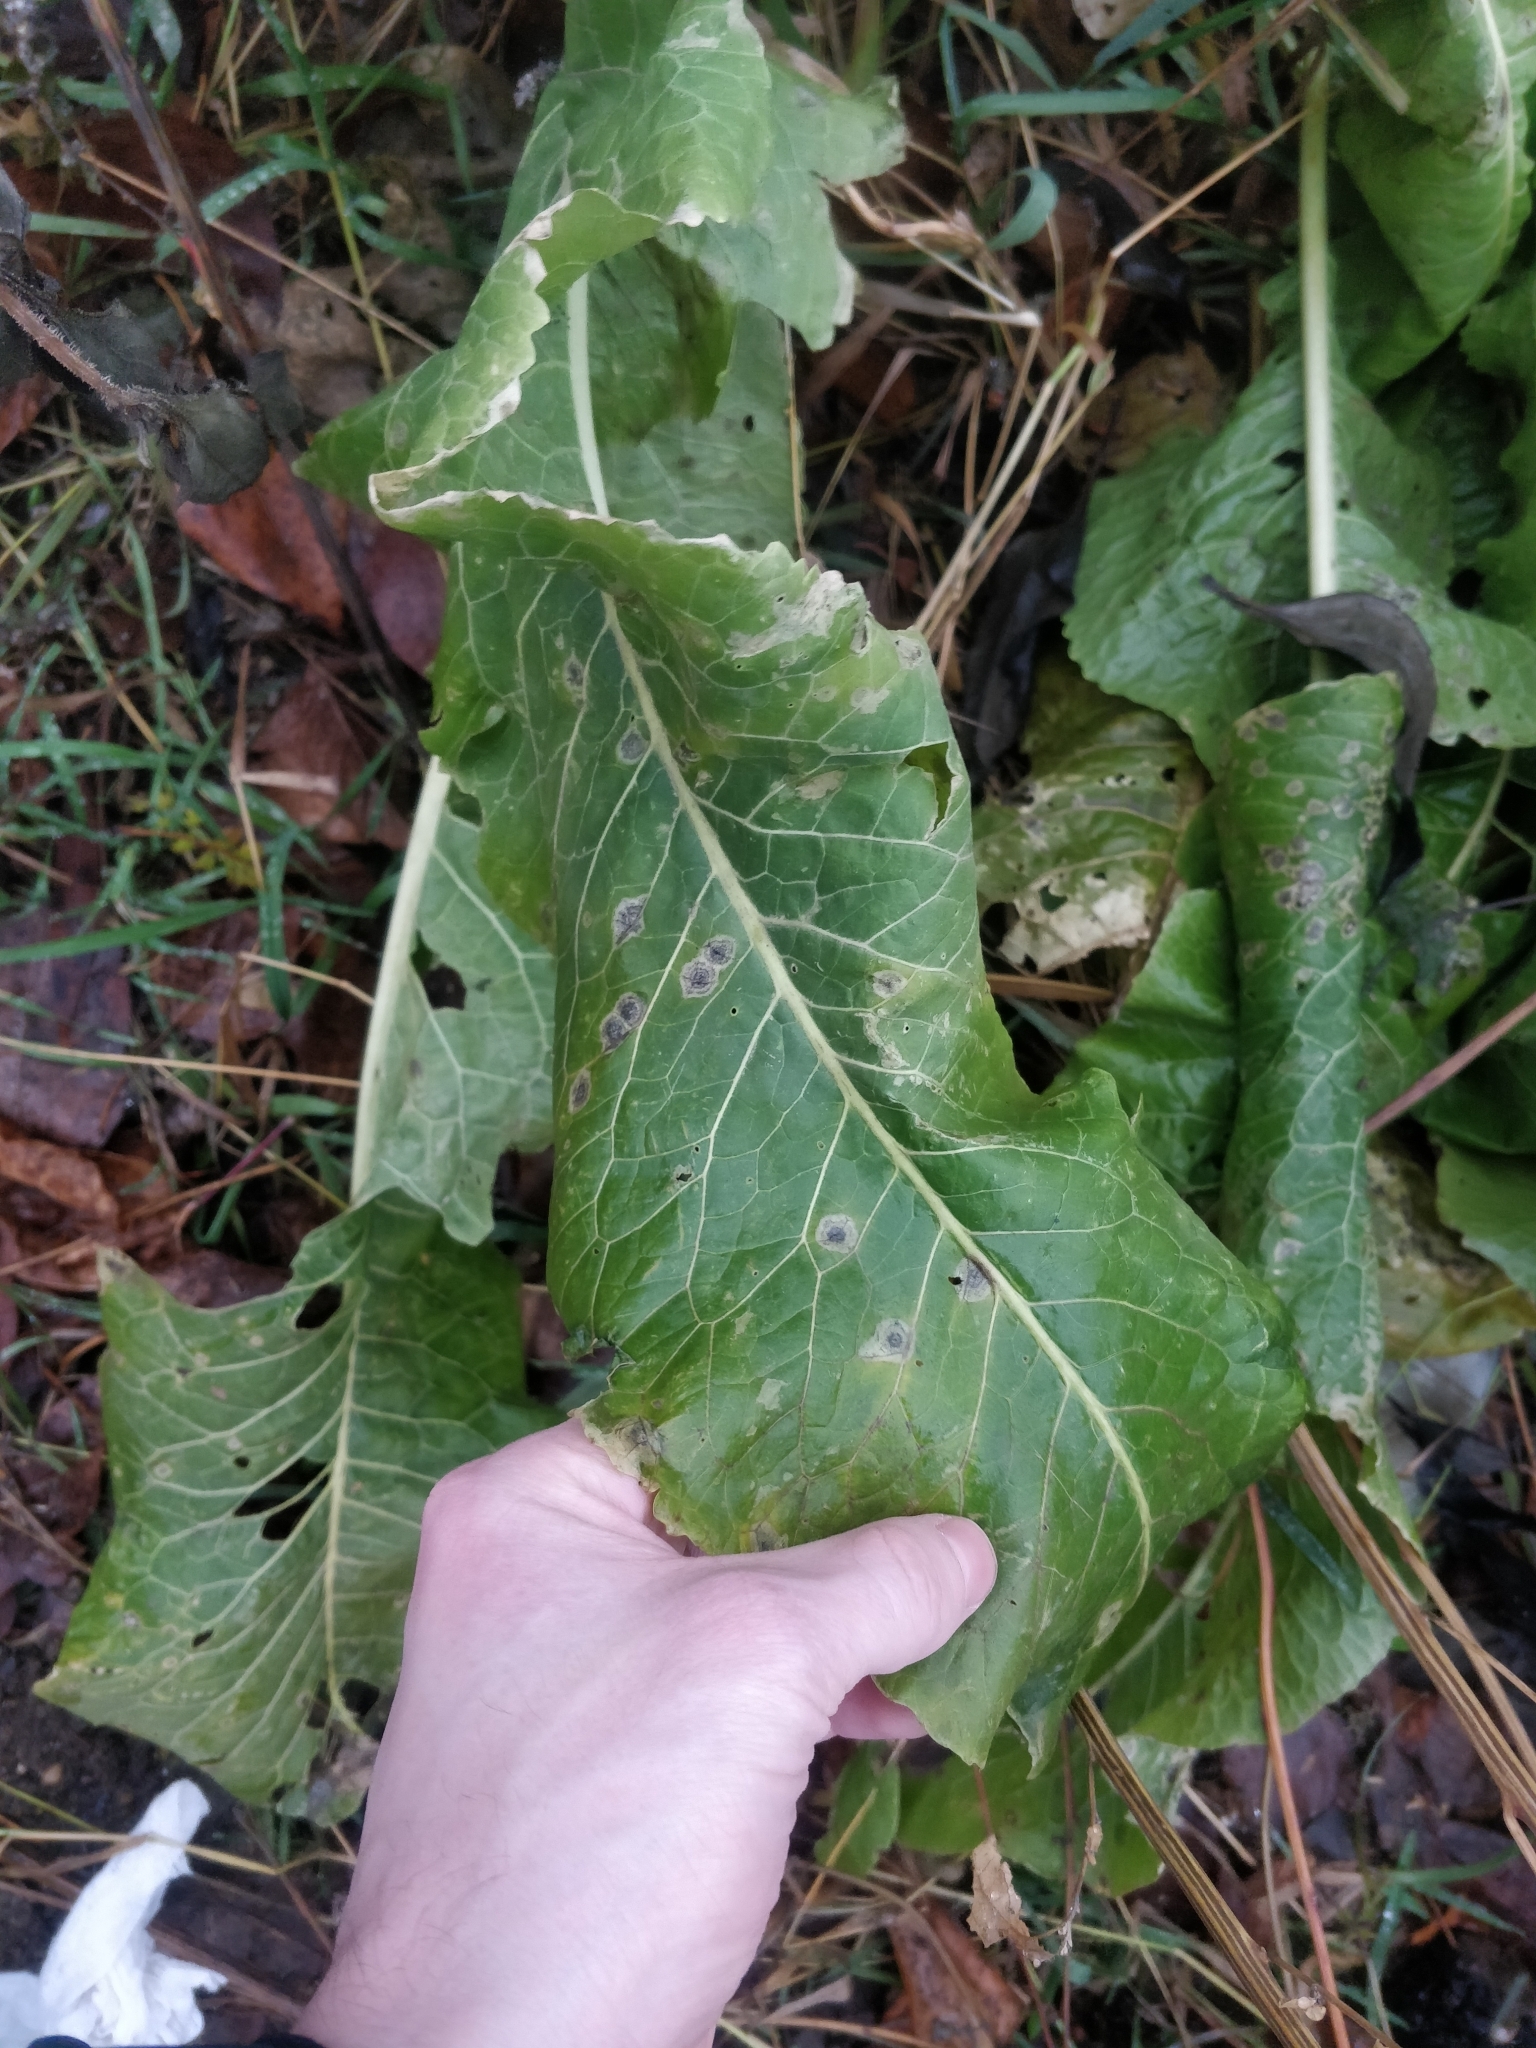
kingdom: Plantae
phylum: Tracheophyta
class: Magnoliopsida
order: Brassicales
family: Brassicaceae
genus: Armoracia
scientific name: Armoracia rusticana
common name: Horseradish
